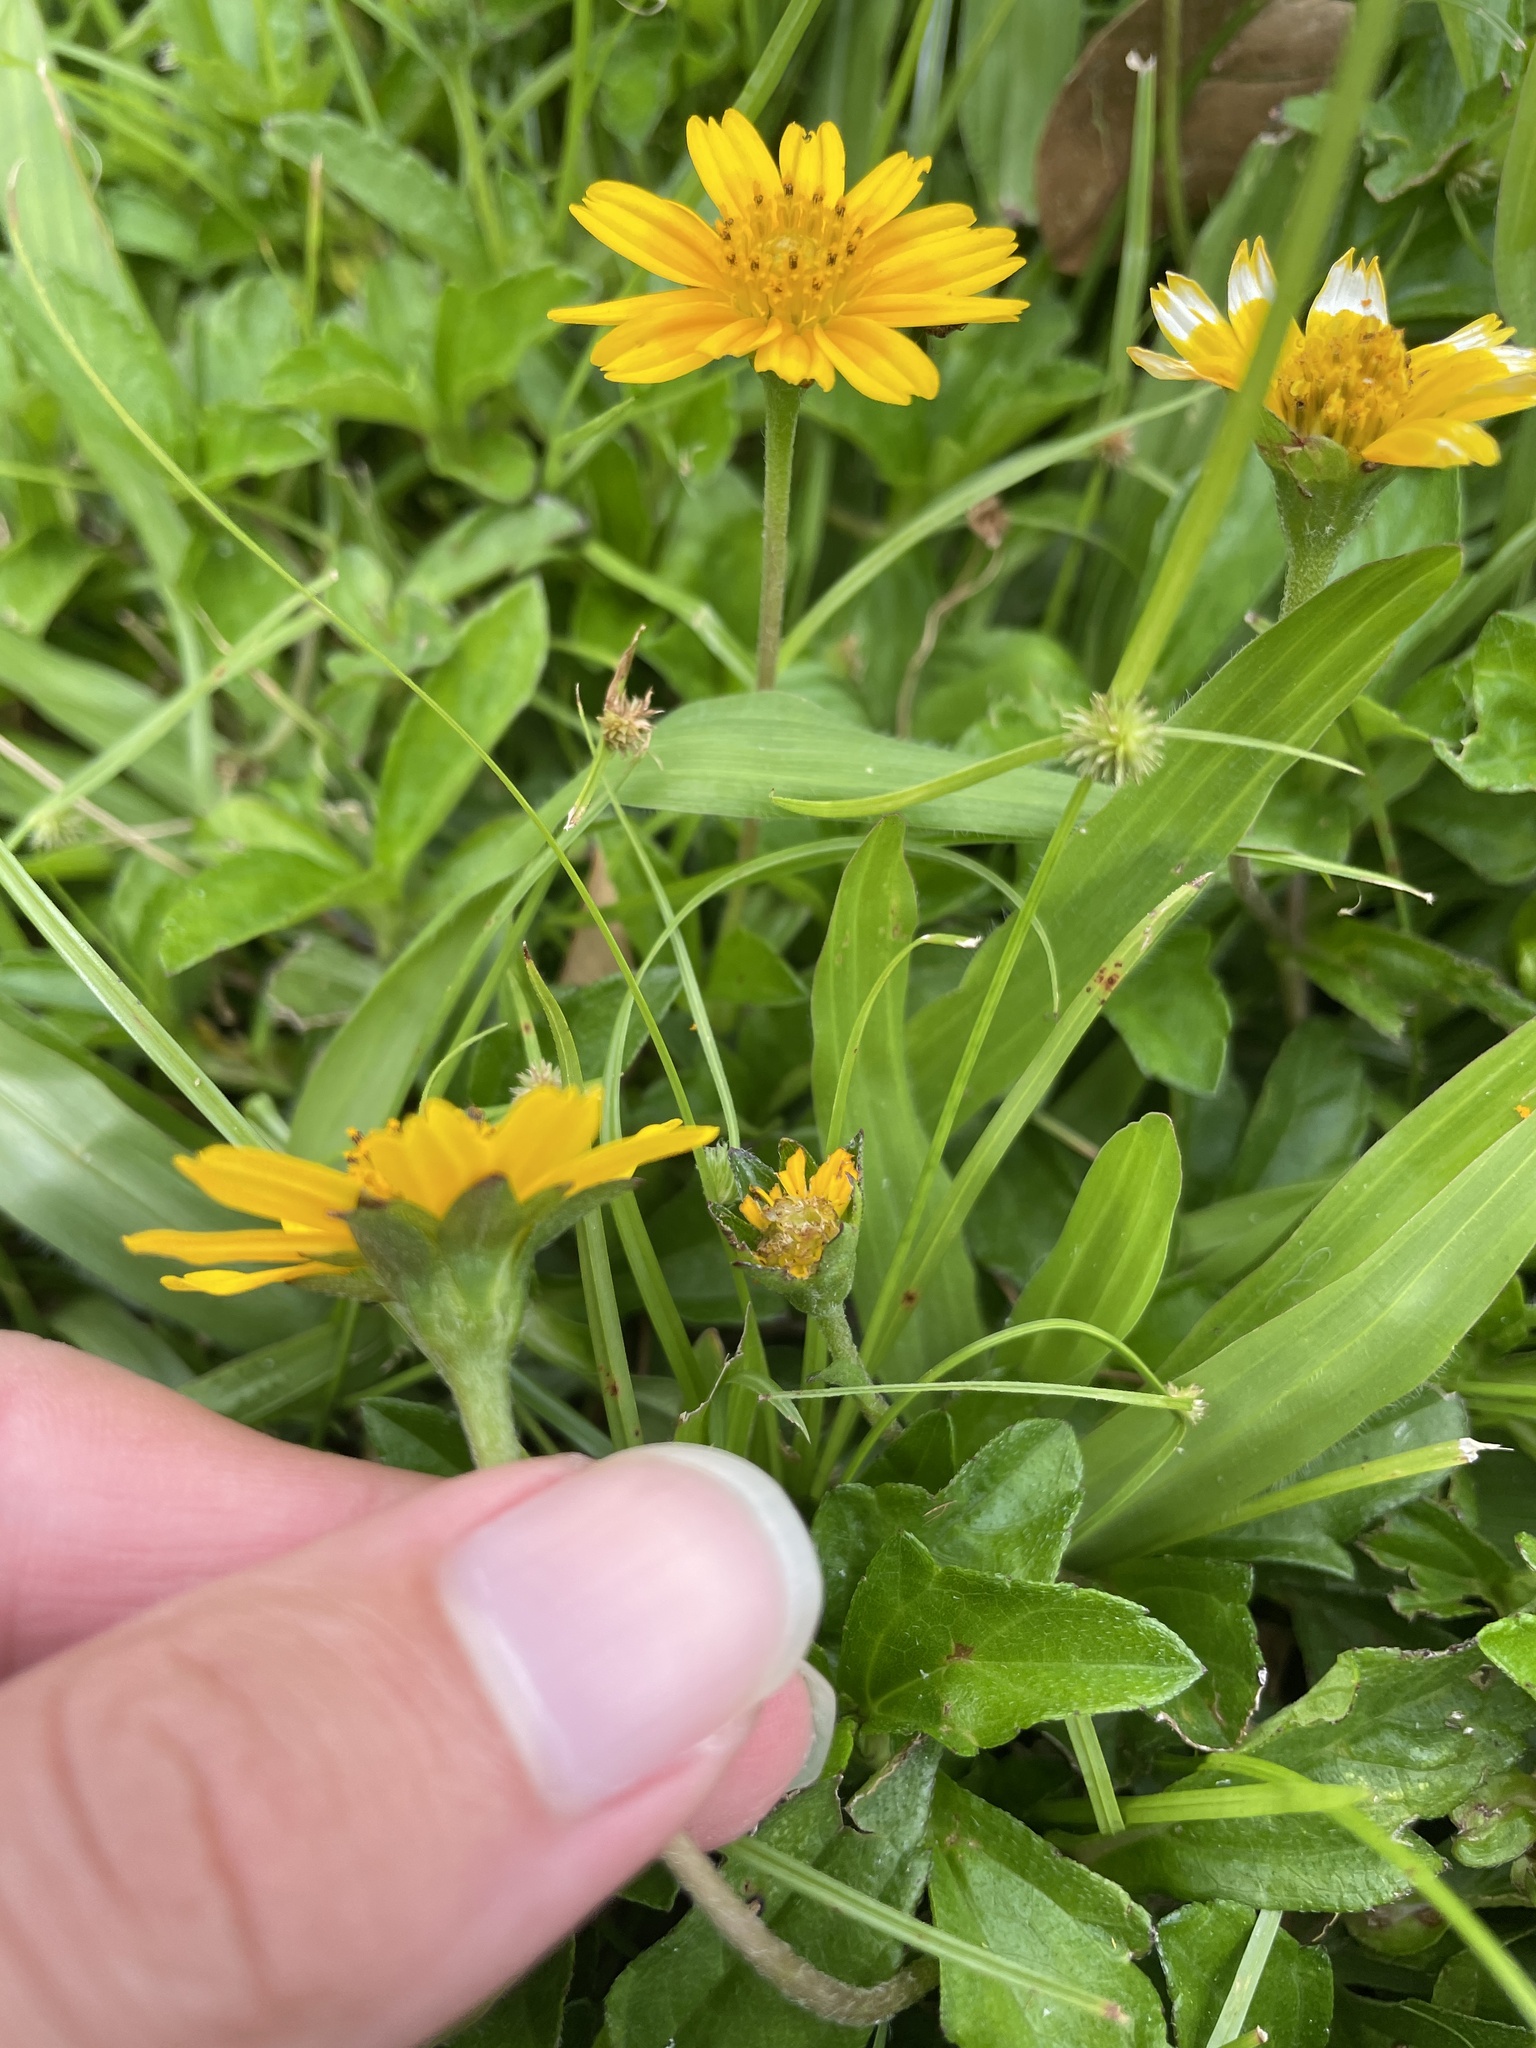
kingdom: Plantae
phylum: Tracheophyta
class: Magnoliopsida
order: Asterales
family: Asteraceae
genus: Sphagneticola
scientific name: Sphagneticola trilobata
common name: Bay biscayne creeping-oxeye
